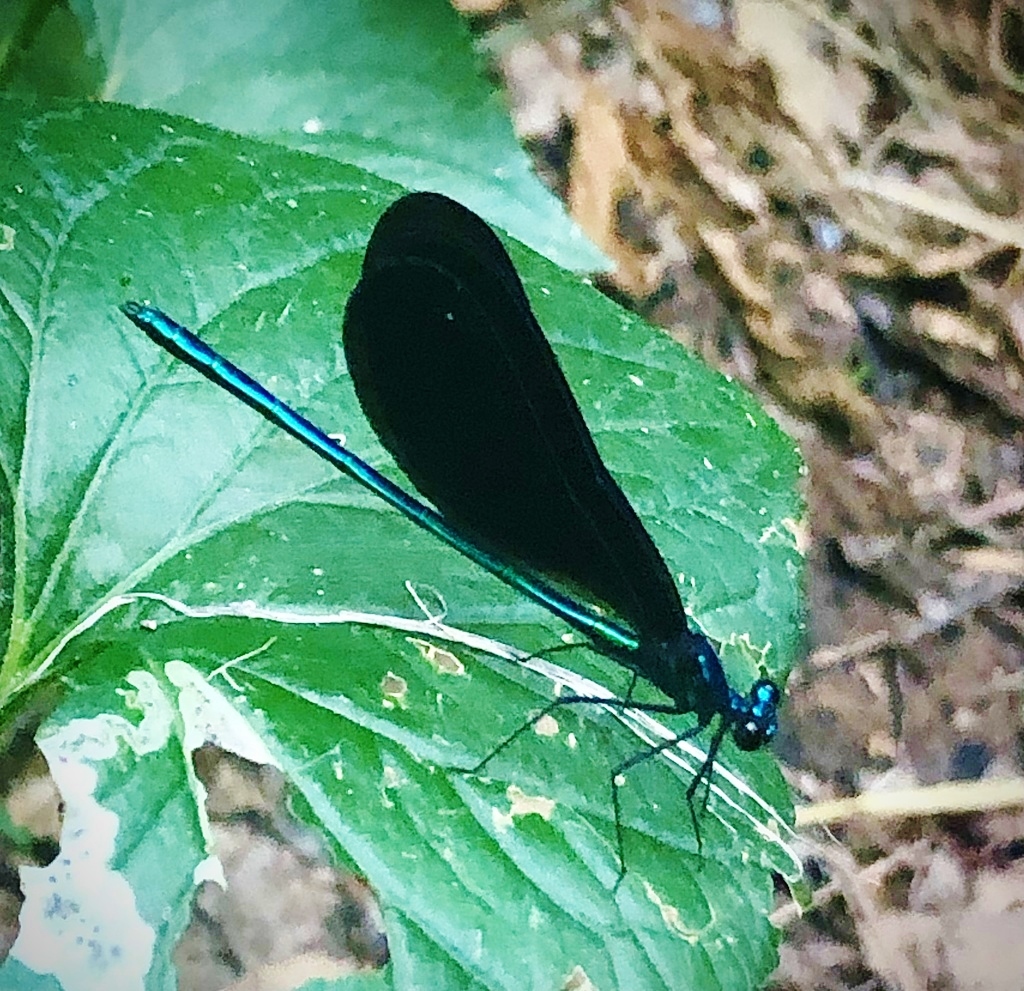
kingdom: Animalia
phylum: Arthropoda
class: Insecta
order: Odonata
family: Calopterygidae
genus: Calopteryx
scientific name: Calopteryx maculata
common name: Ebony jewelwing
